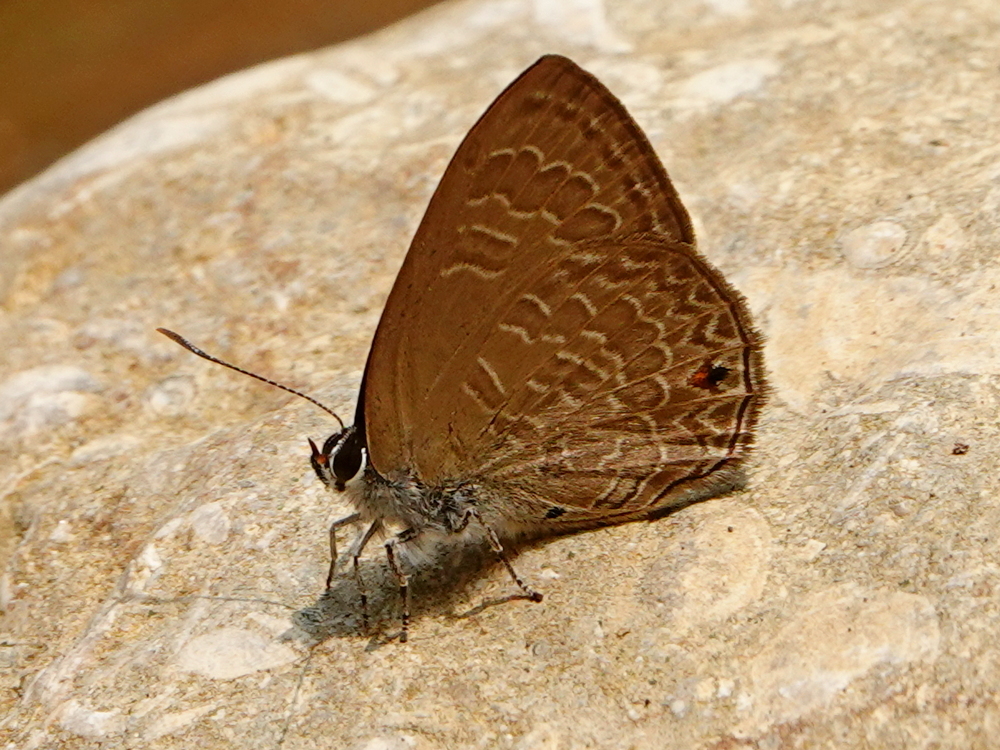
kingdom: Animalia
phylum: Arthropoda
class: Insecta
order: Lepidoptera
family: Lycaenidae
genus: Anthene
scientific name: Anthene emolus
